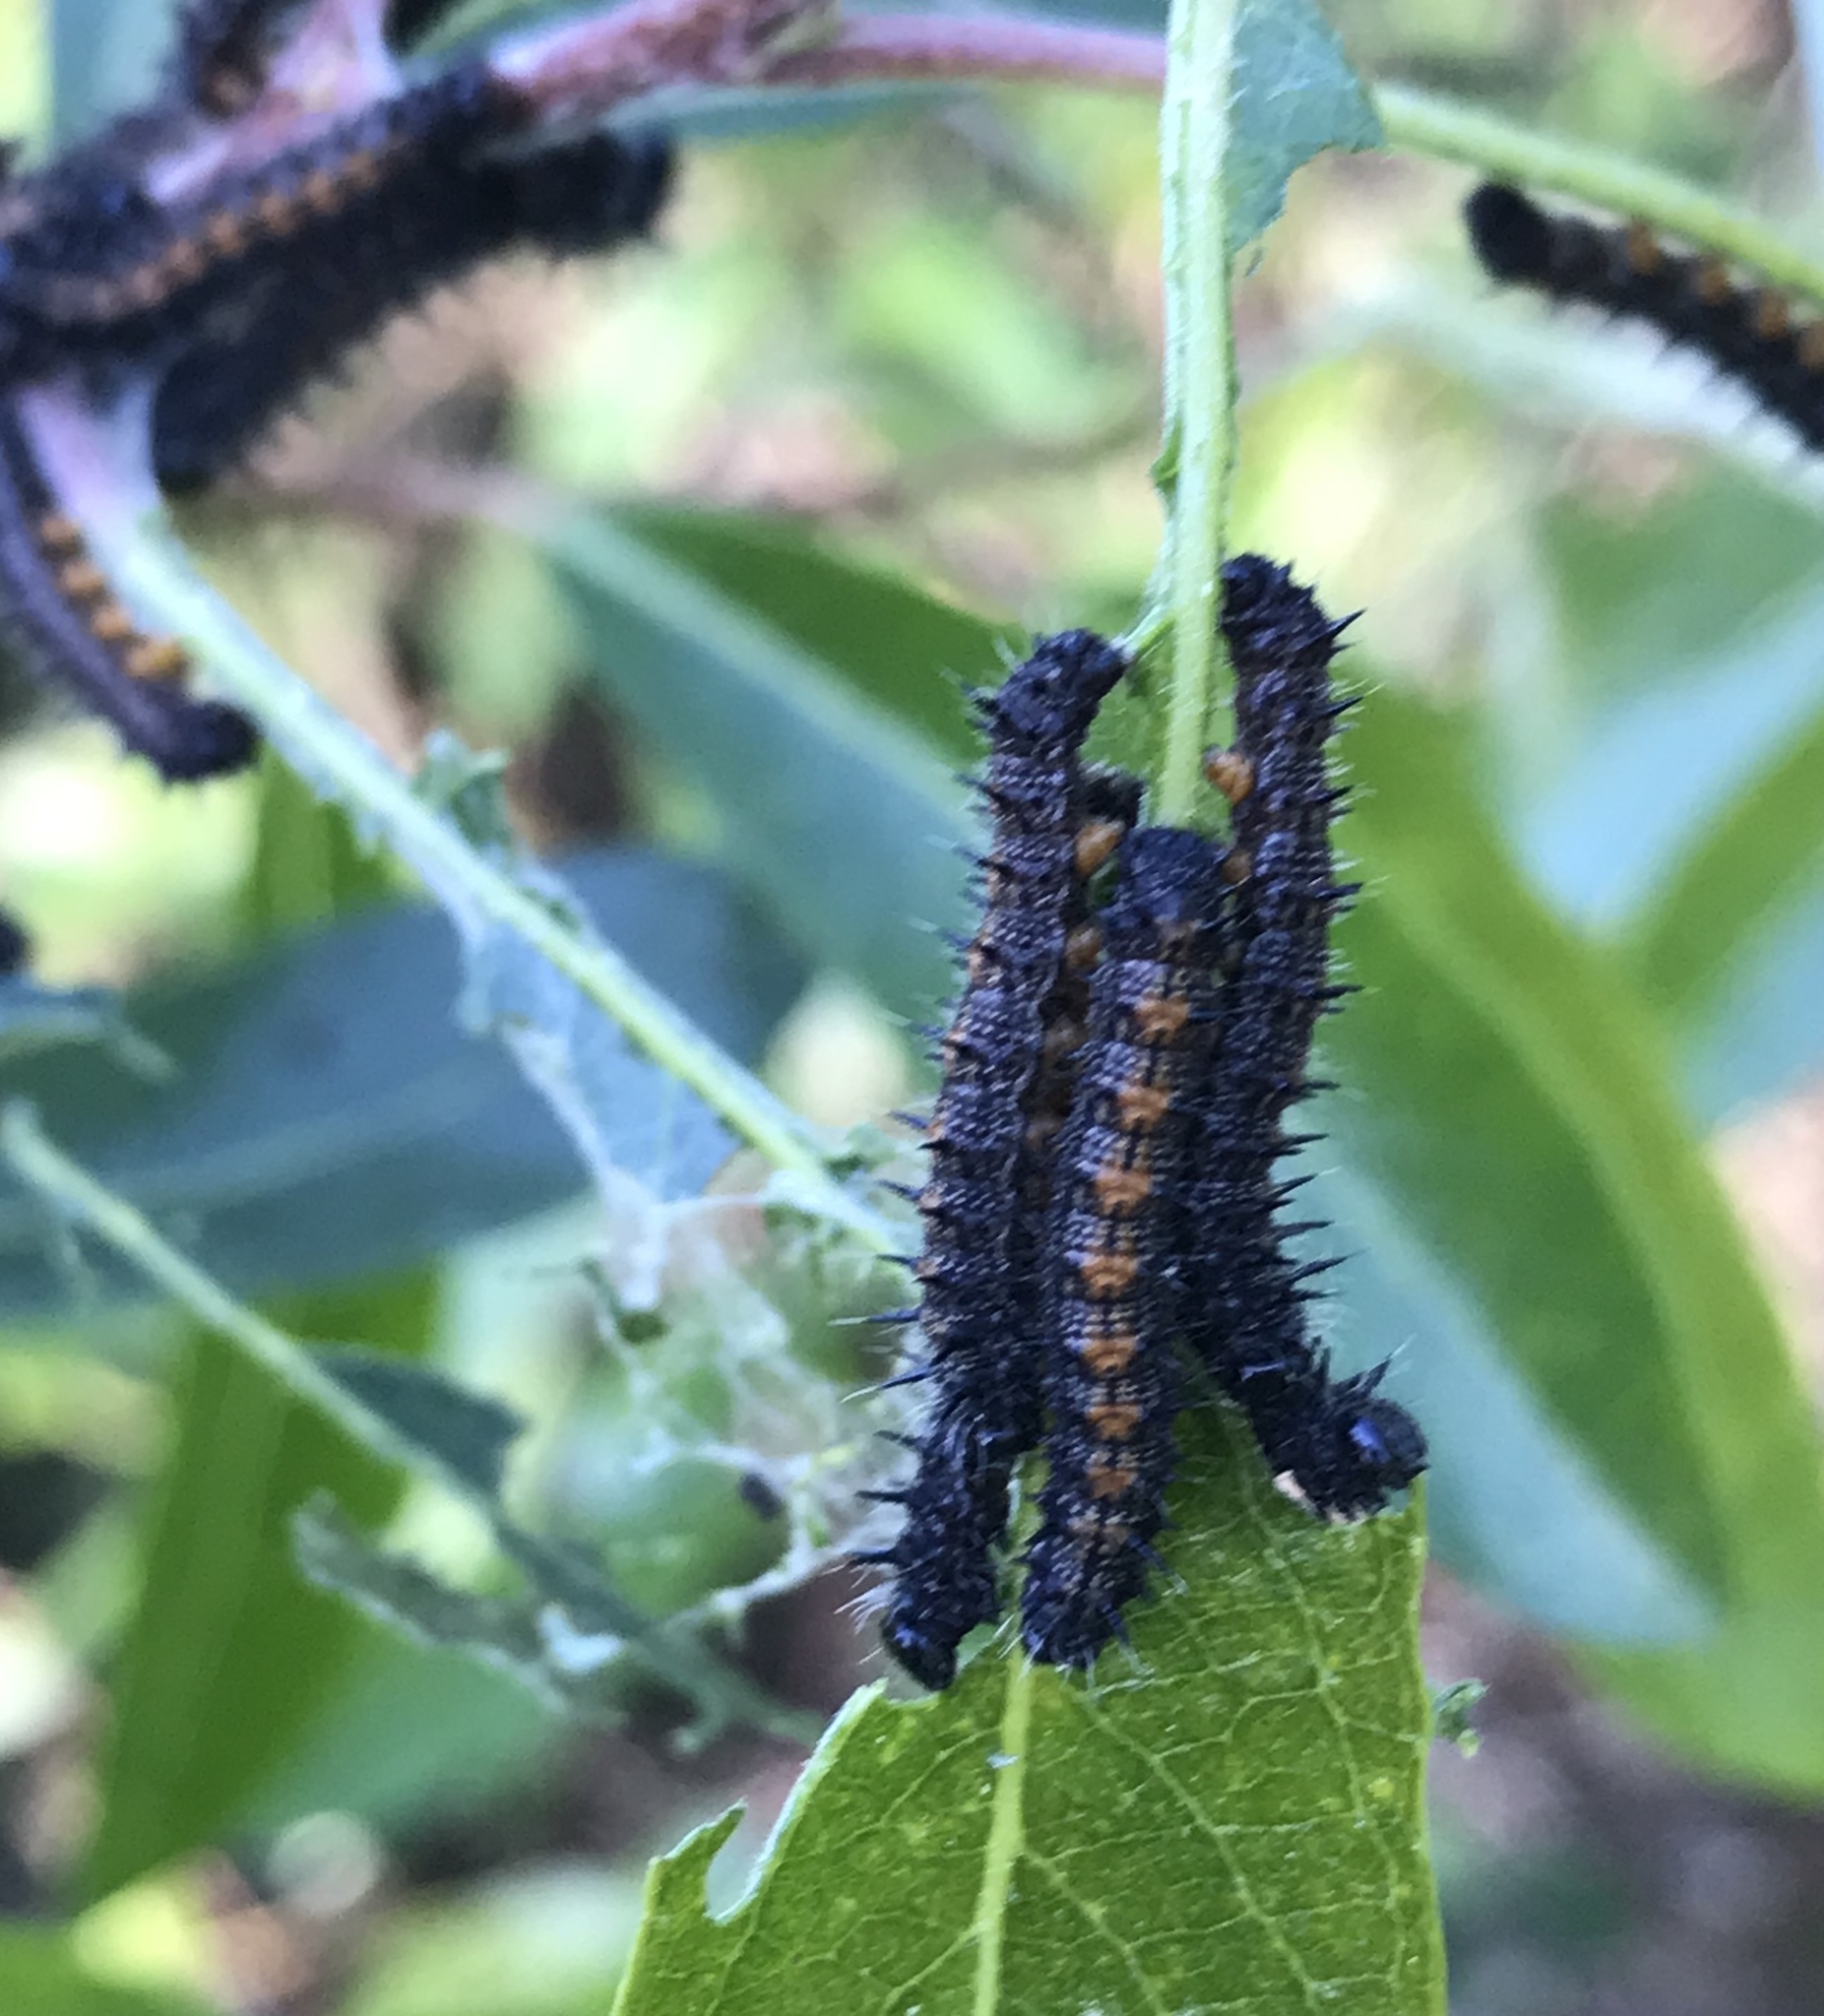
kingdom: Animalia
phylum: Arthropoda
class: Insecta
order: Lepidoptera
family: Nymphalidae
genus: Nymphalis
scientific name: Nymphalis antiopa
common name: Camberwell beauty
